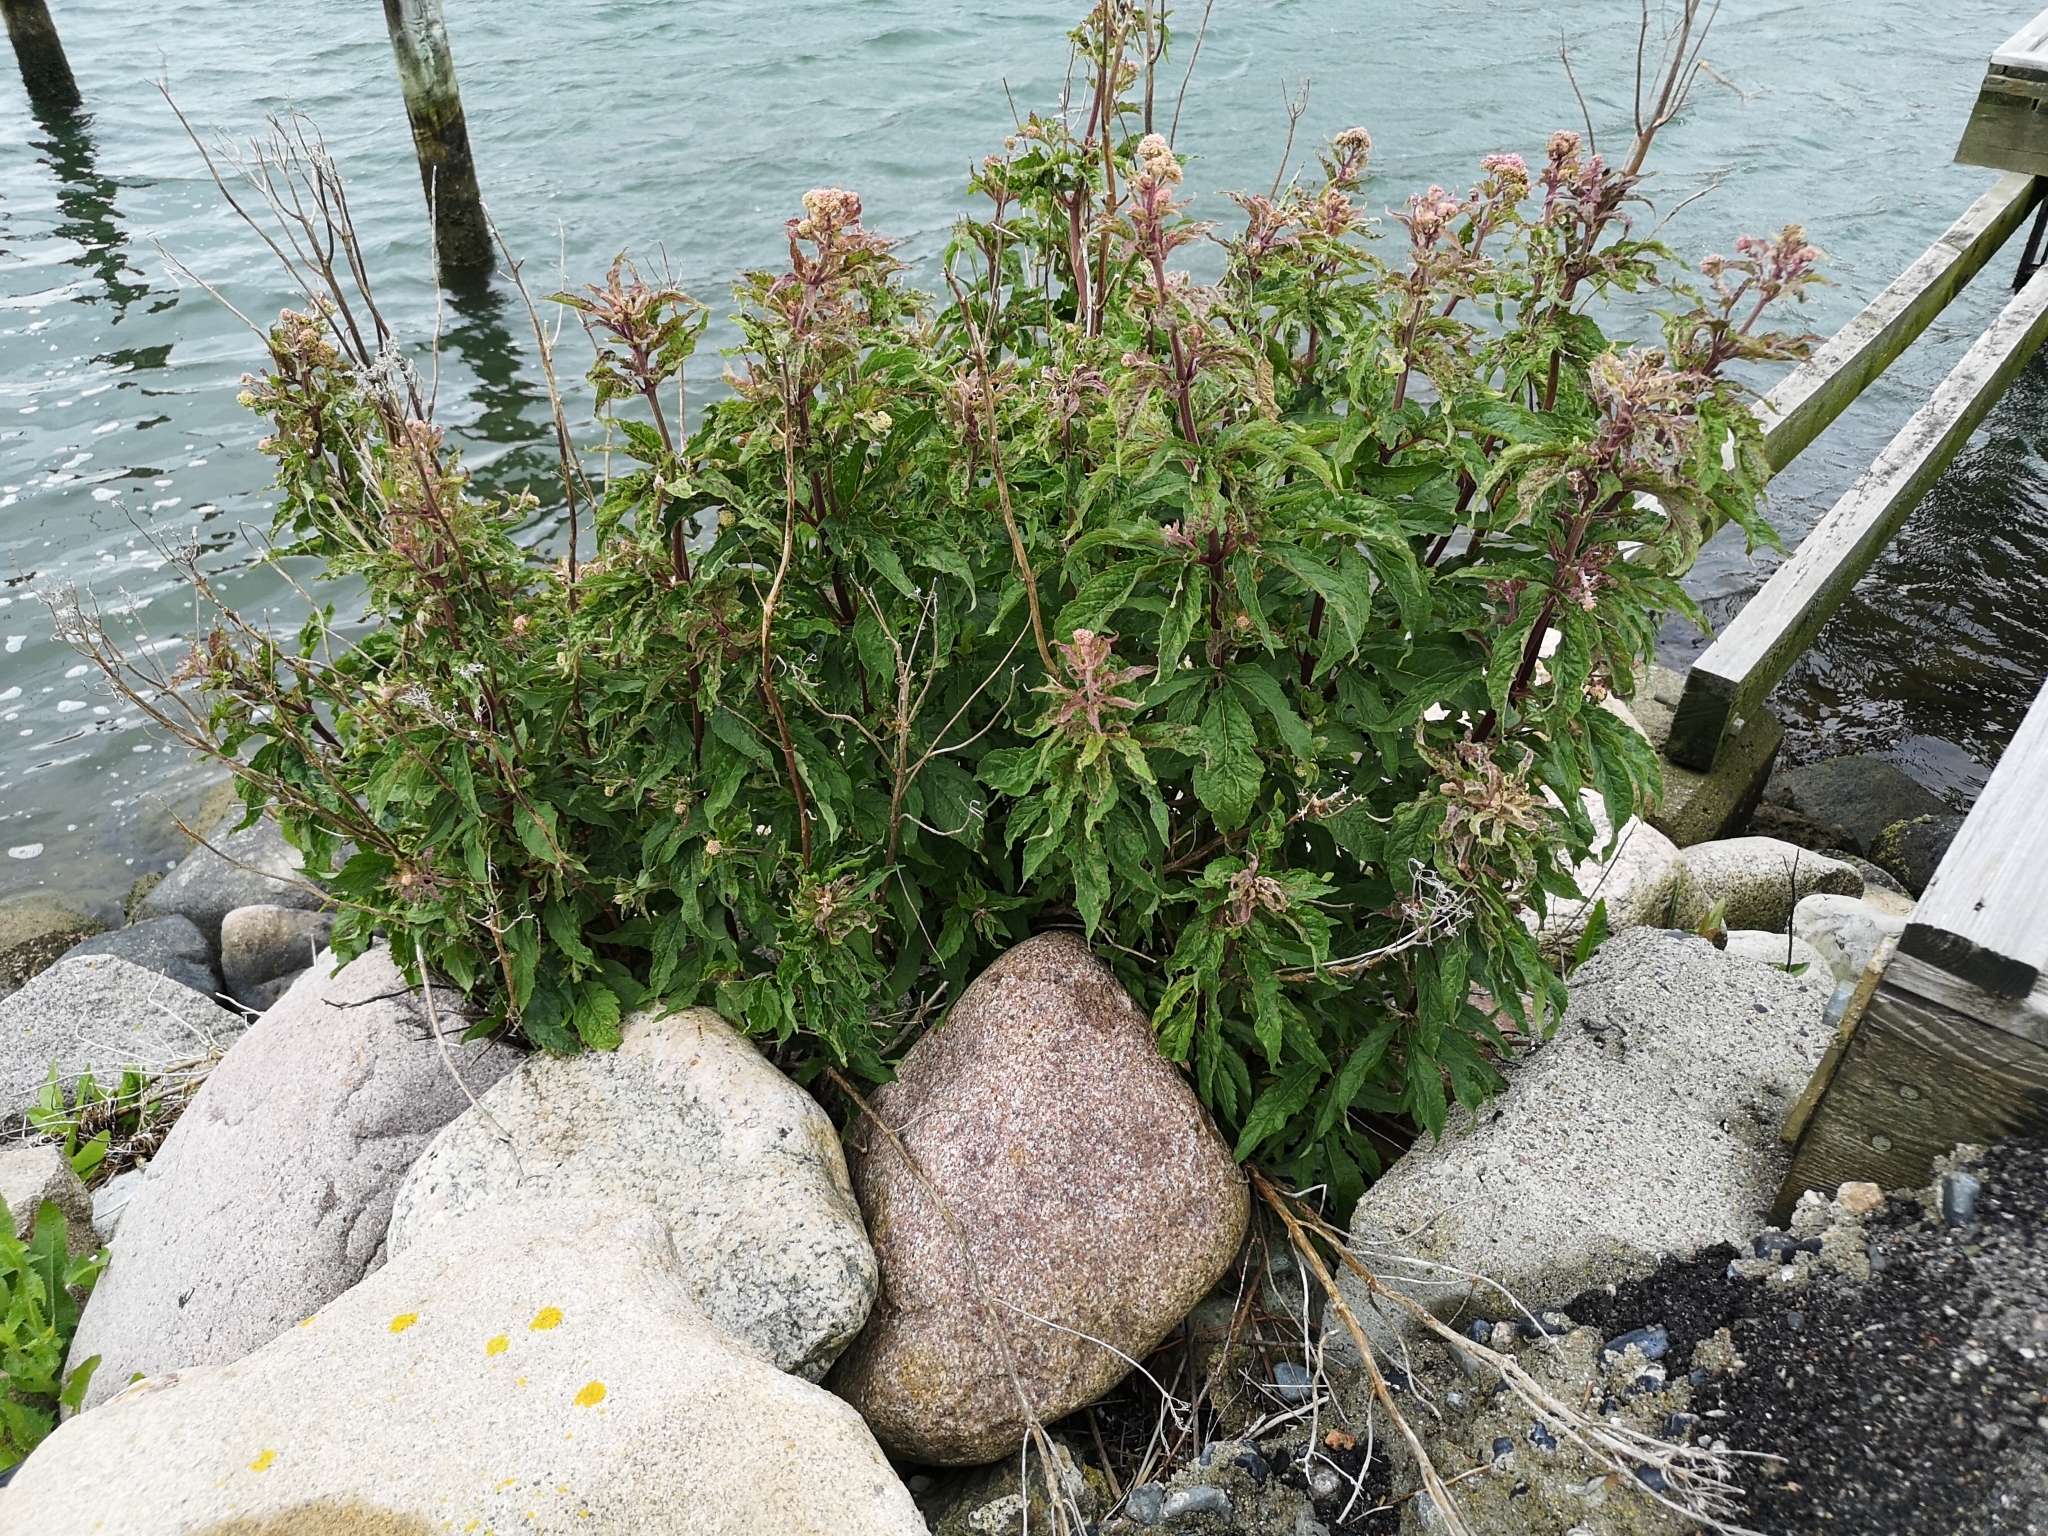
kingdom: Plantae
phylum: Tracheophyta
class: Magnoliopsida
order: Asterales
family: Asteraceae
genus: Eupatorium
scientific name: Eupatorium cannabinum
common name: Hemp-agrimony
